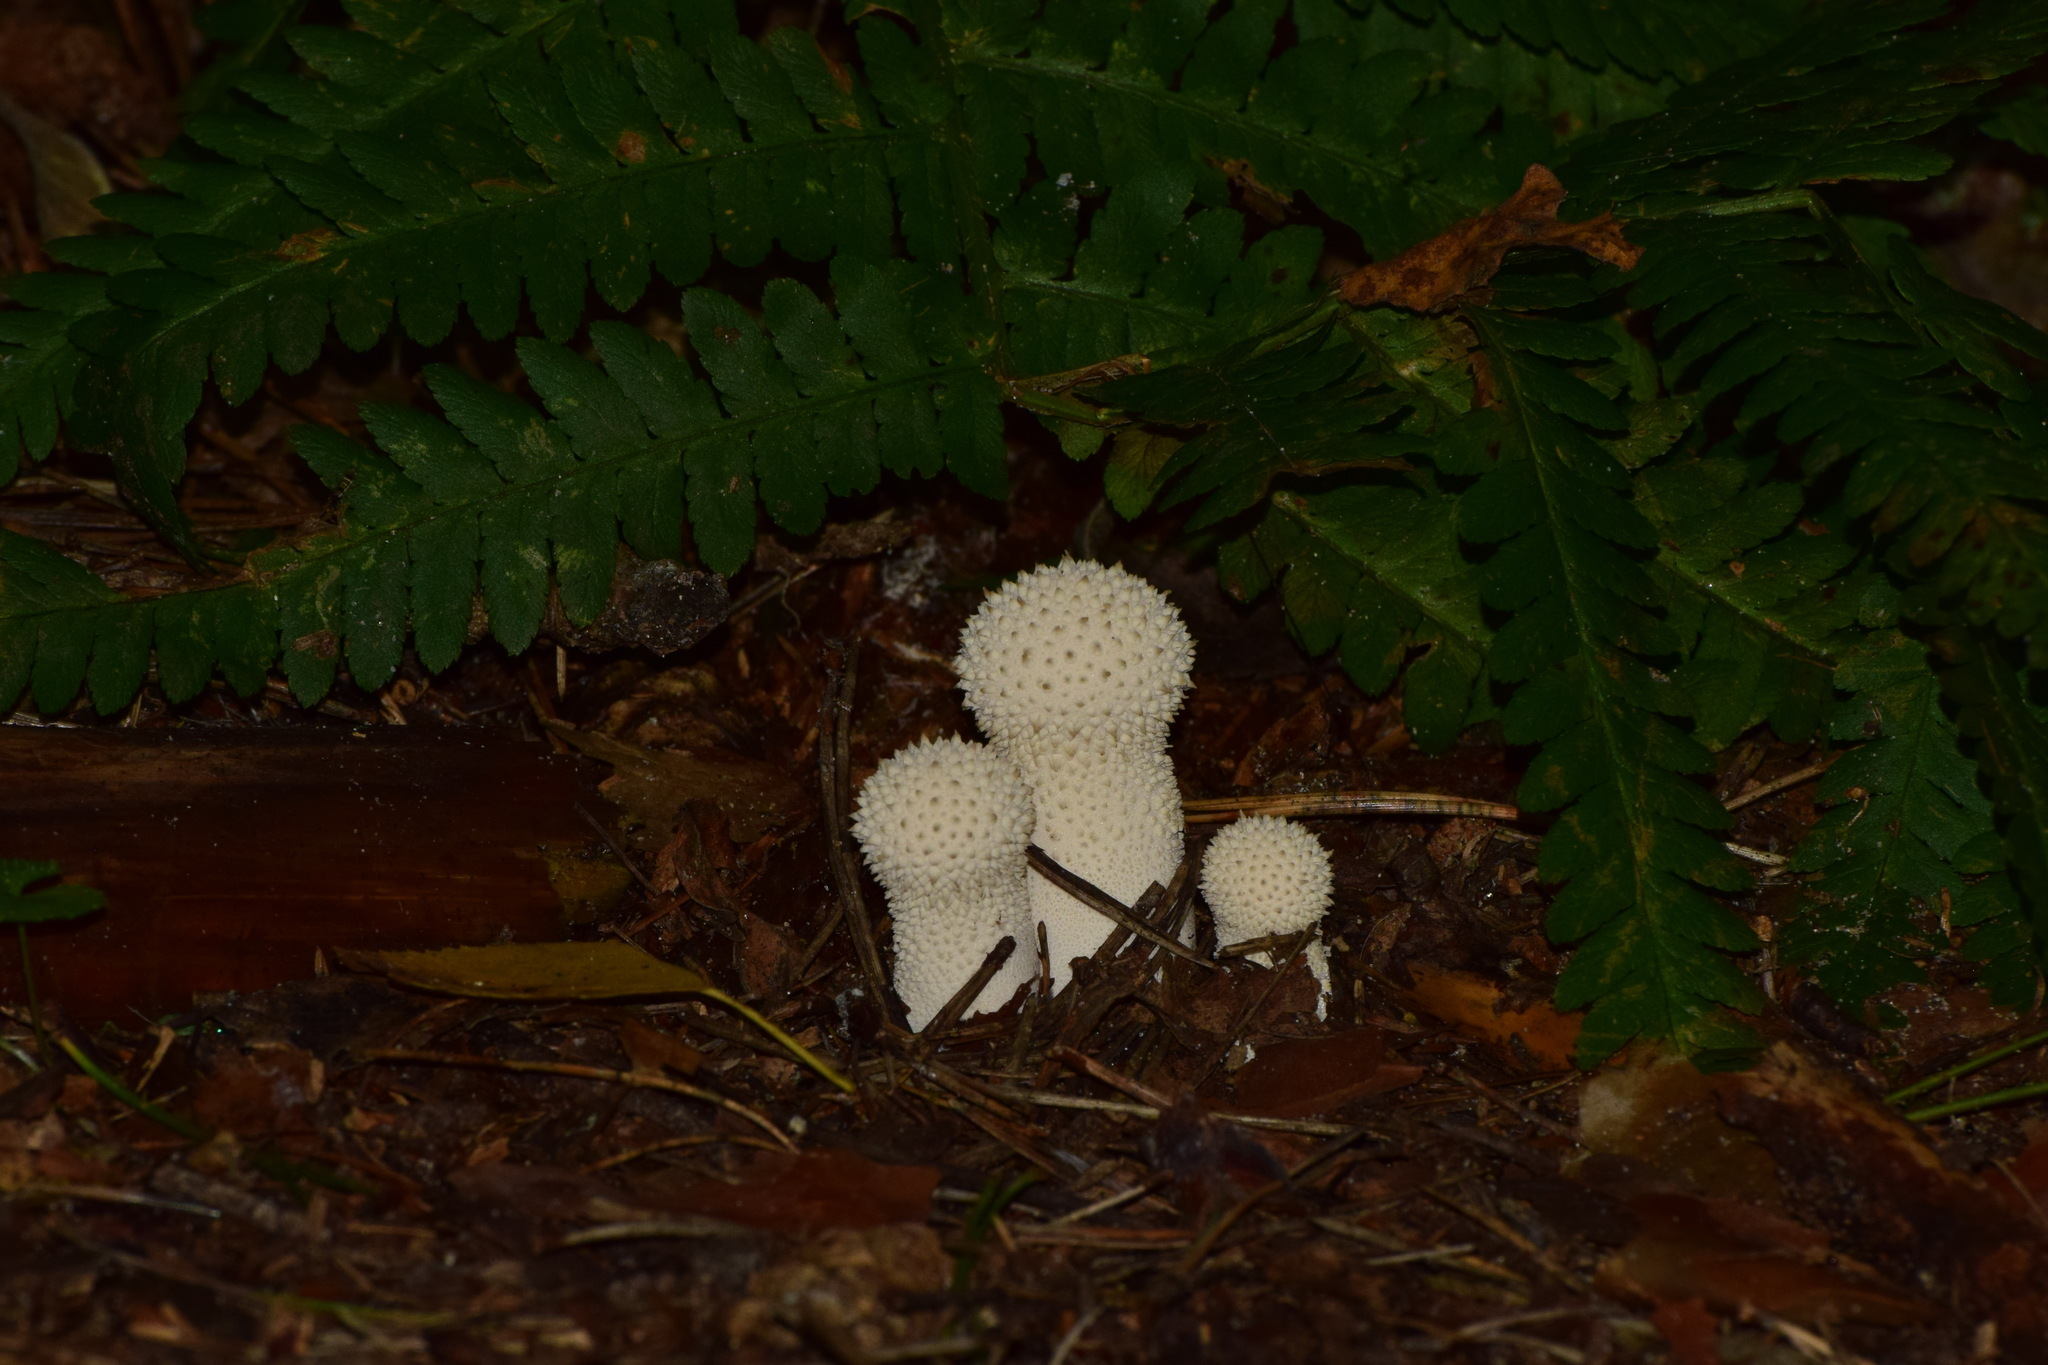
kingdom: Fungi
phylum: Basidiomycota
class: Agaricomycetes
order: Agaricales
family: Lycoperdaceae
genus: Lycoperdon
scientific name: Lycoperdon perlatum
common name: Common puffball
